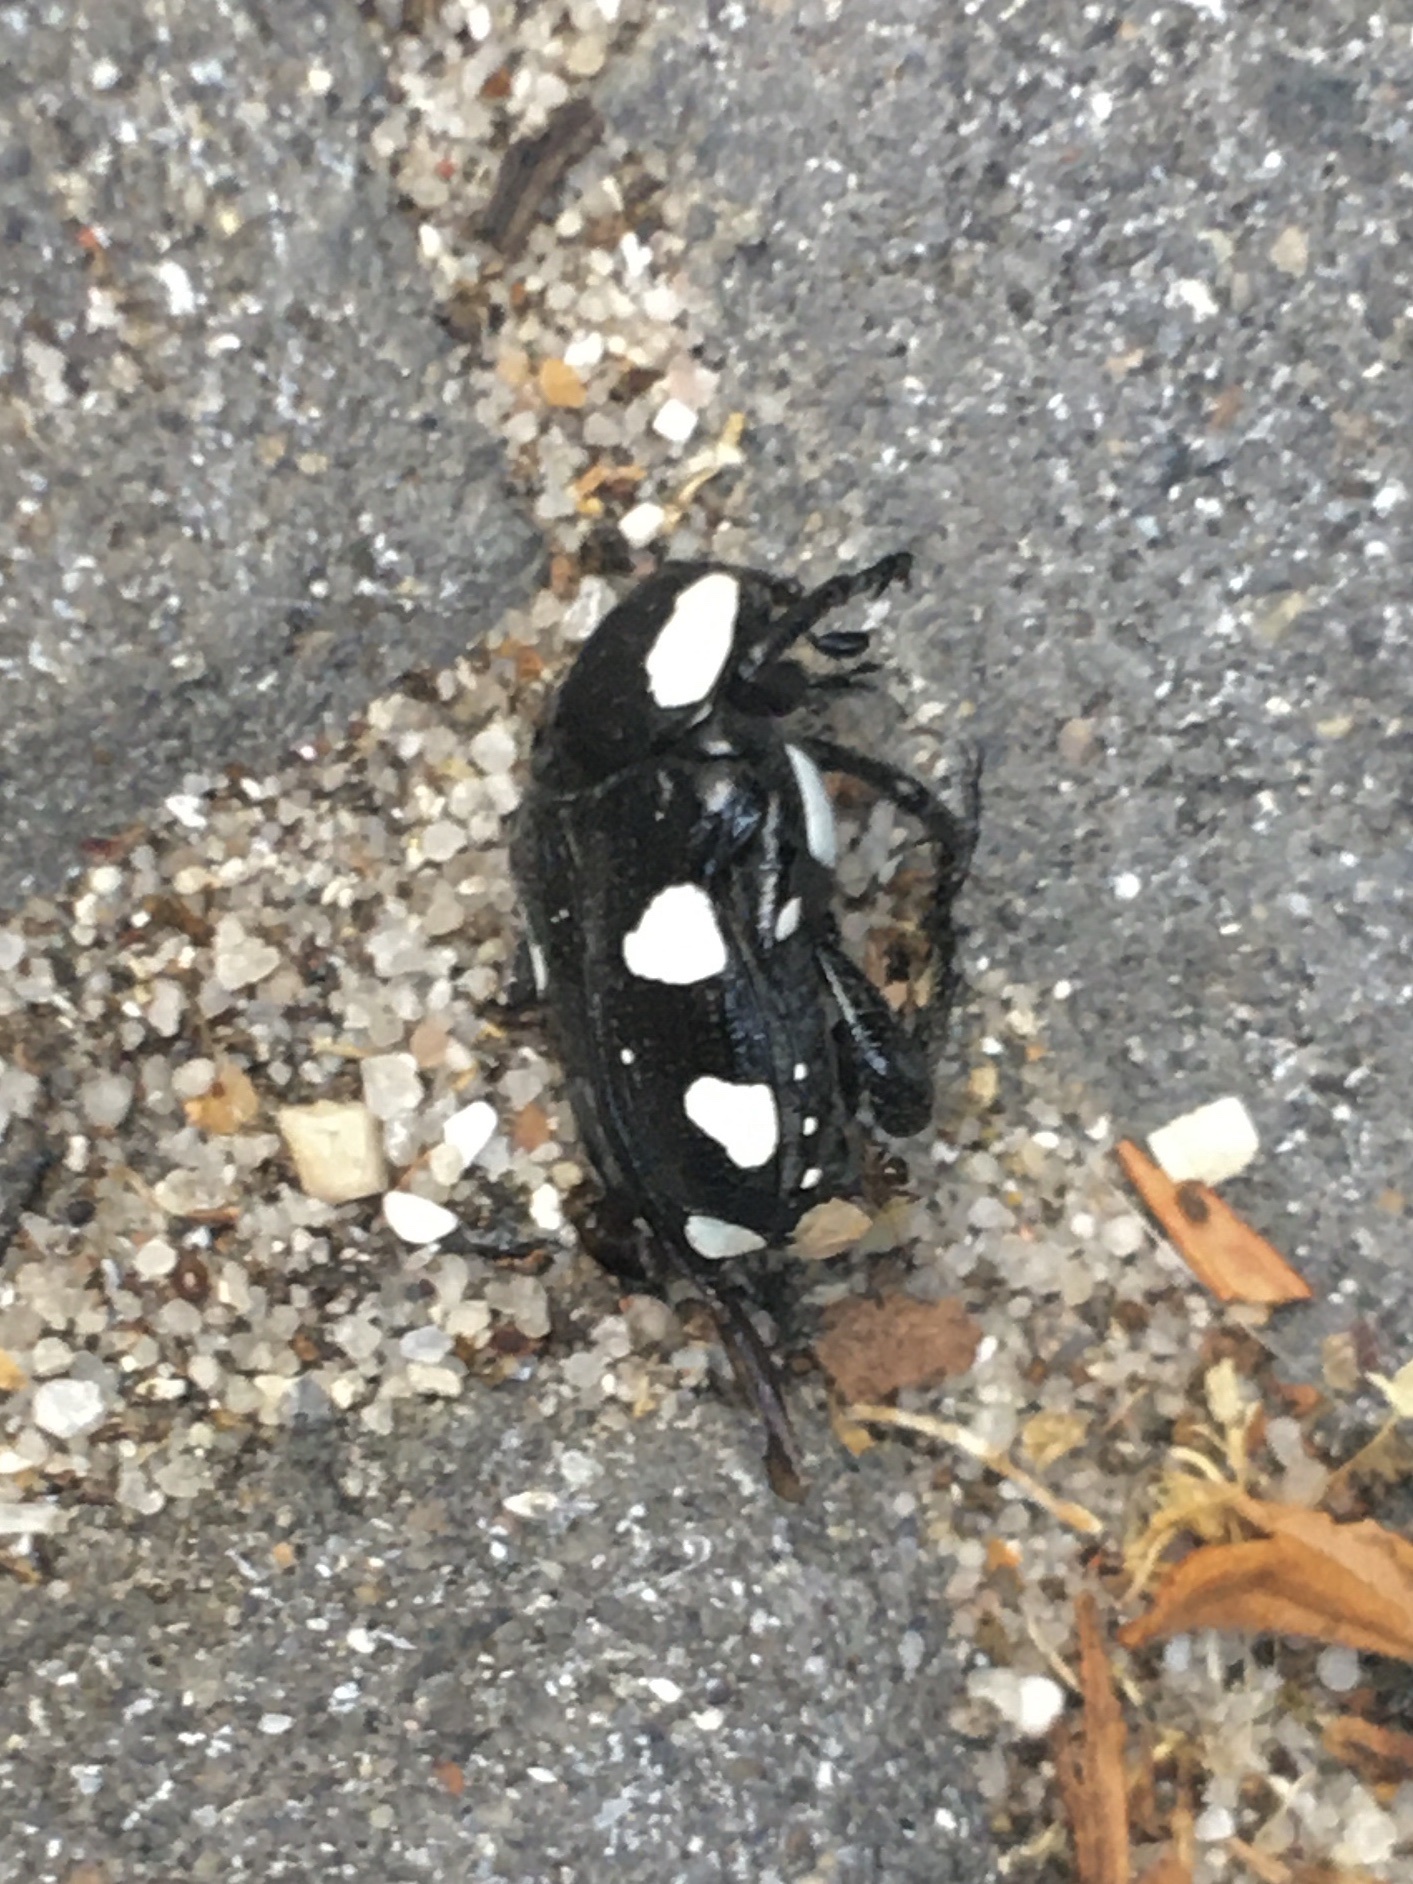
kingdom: Animalia
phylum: Arthropoda
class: Insecta
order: Coleoptera
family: Scarabaeidae
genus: Mausoleopsis
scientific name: Mausoleopsis amabilis
